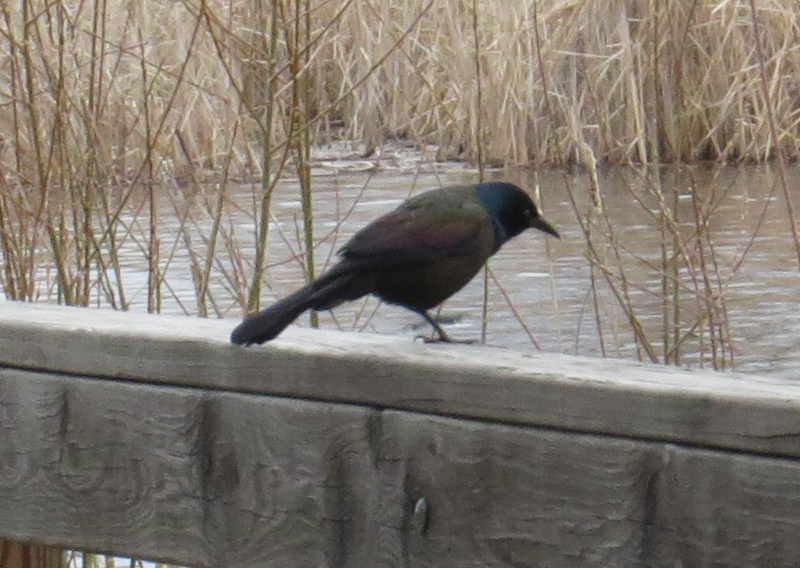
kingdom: Animalia
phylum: Chordata
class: Aves
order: Passeriformes
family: Icteridae
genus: Quiscalus
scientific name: Quiscalus quiscula
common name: Common grackle
